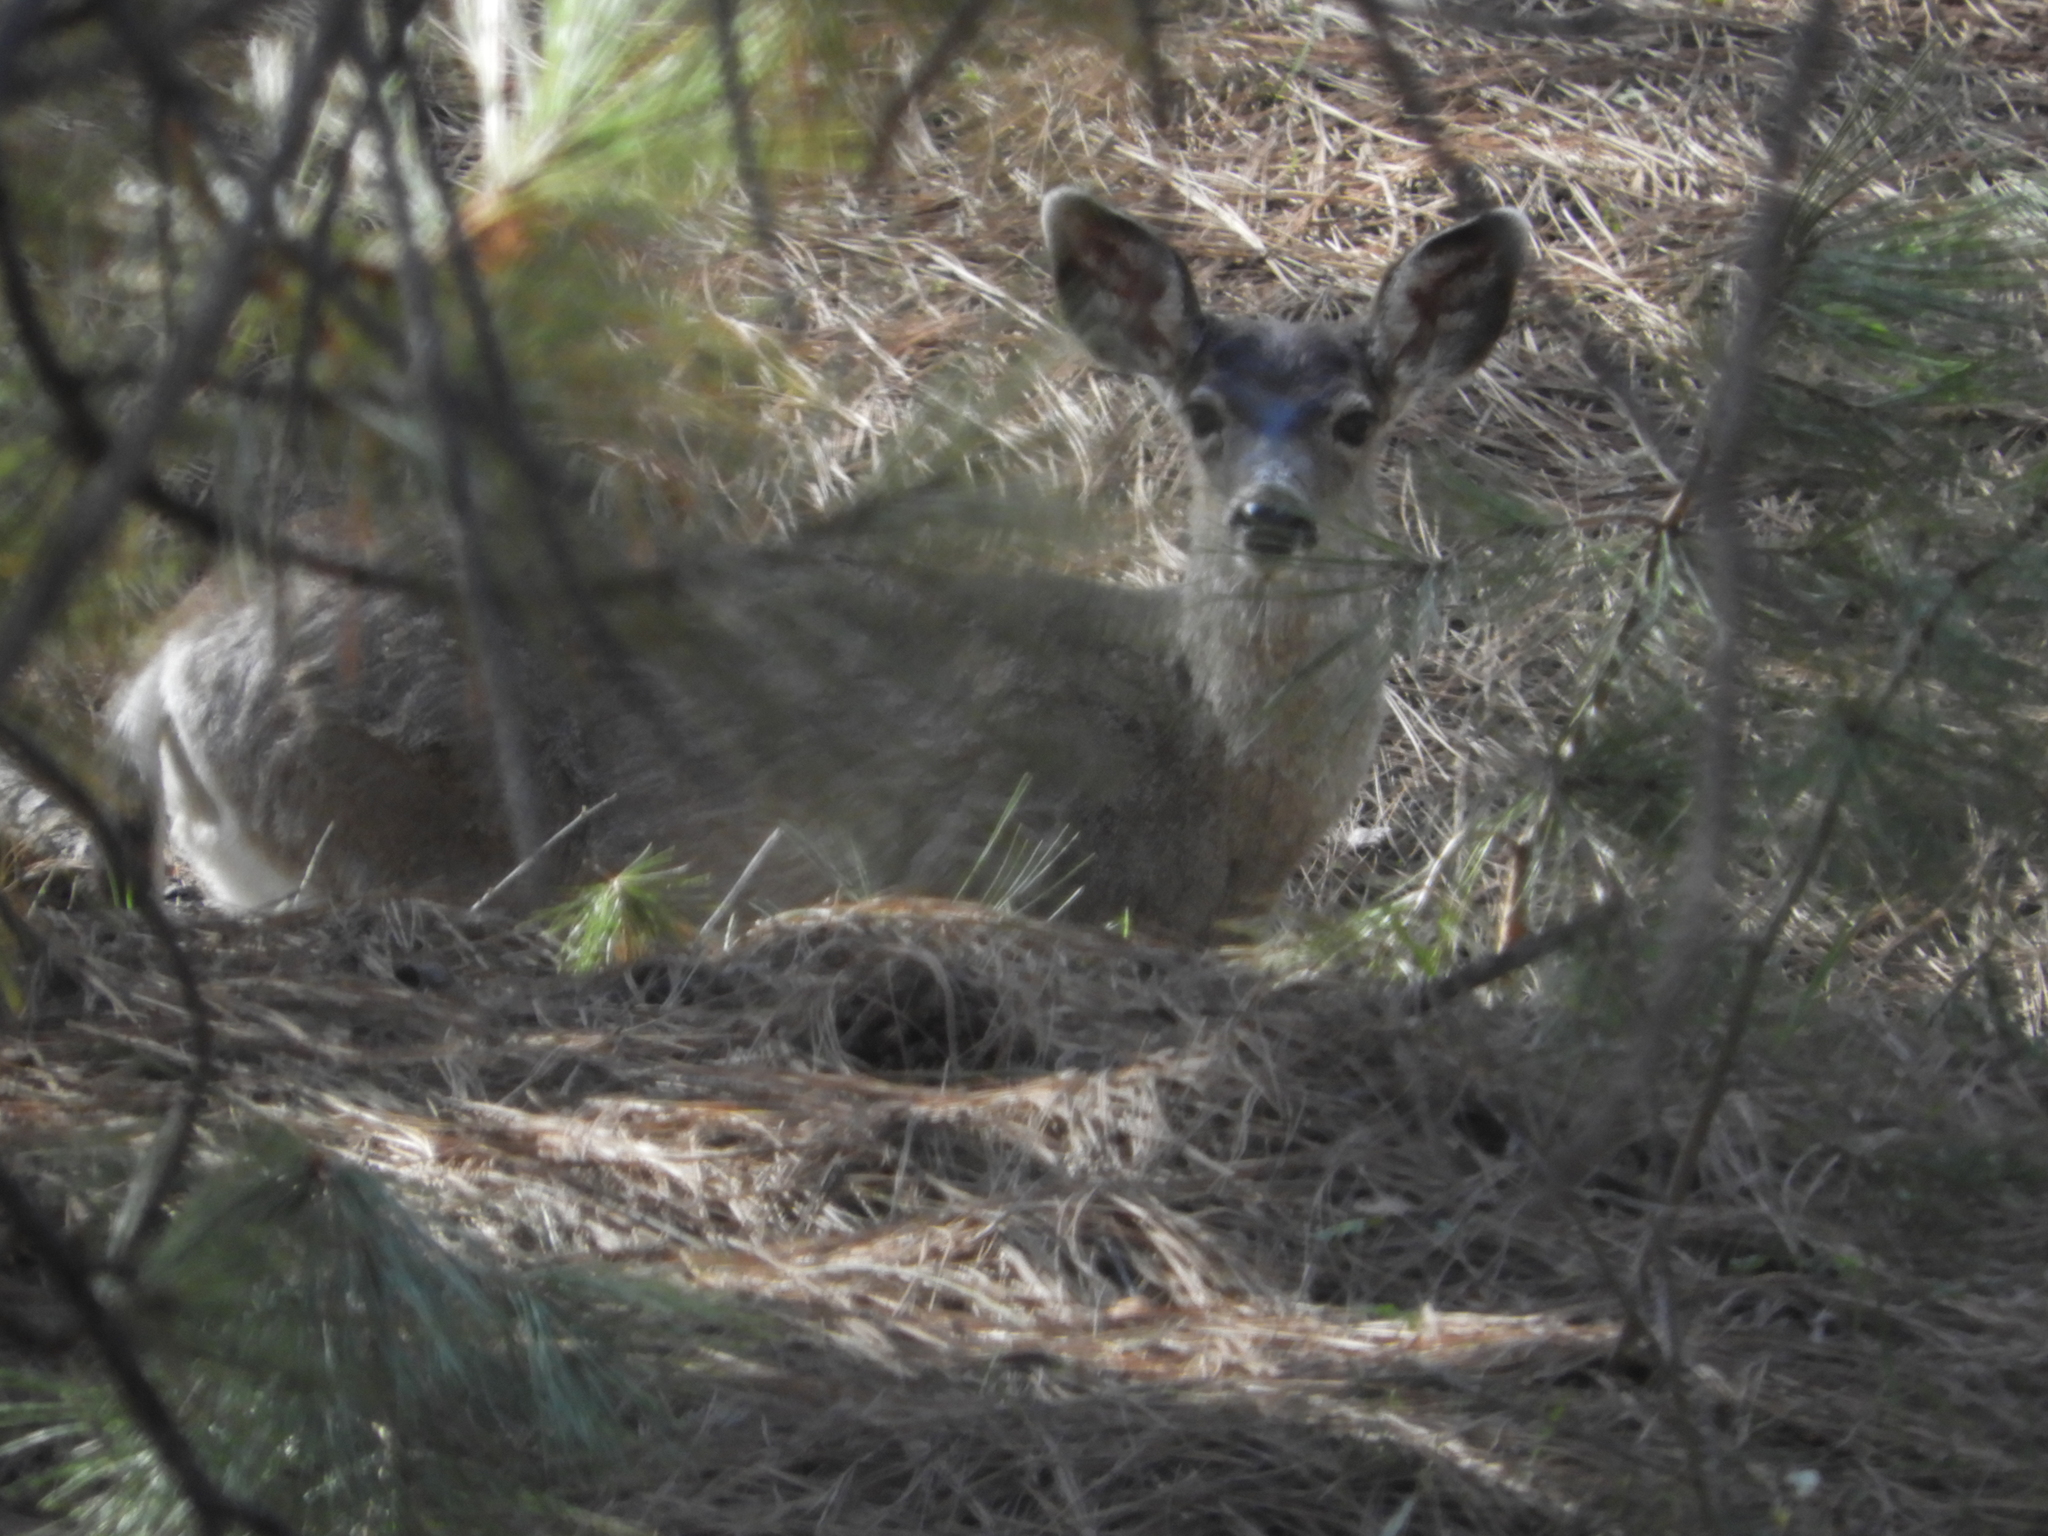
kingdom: Animalia
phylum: Chordata
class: Mammalia
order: Artiodactyla
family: Cervidae
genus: Odocoileus
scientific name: Odocoileus hemionus
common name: Mule deer
